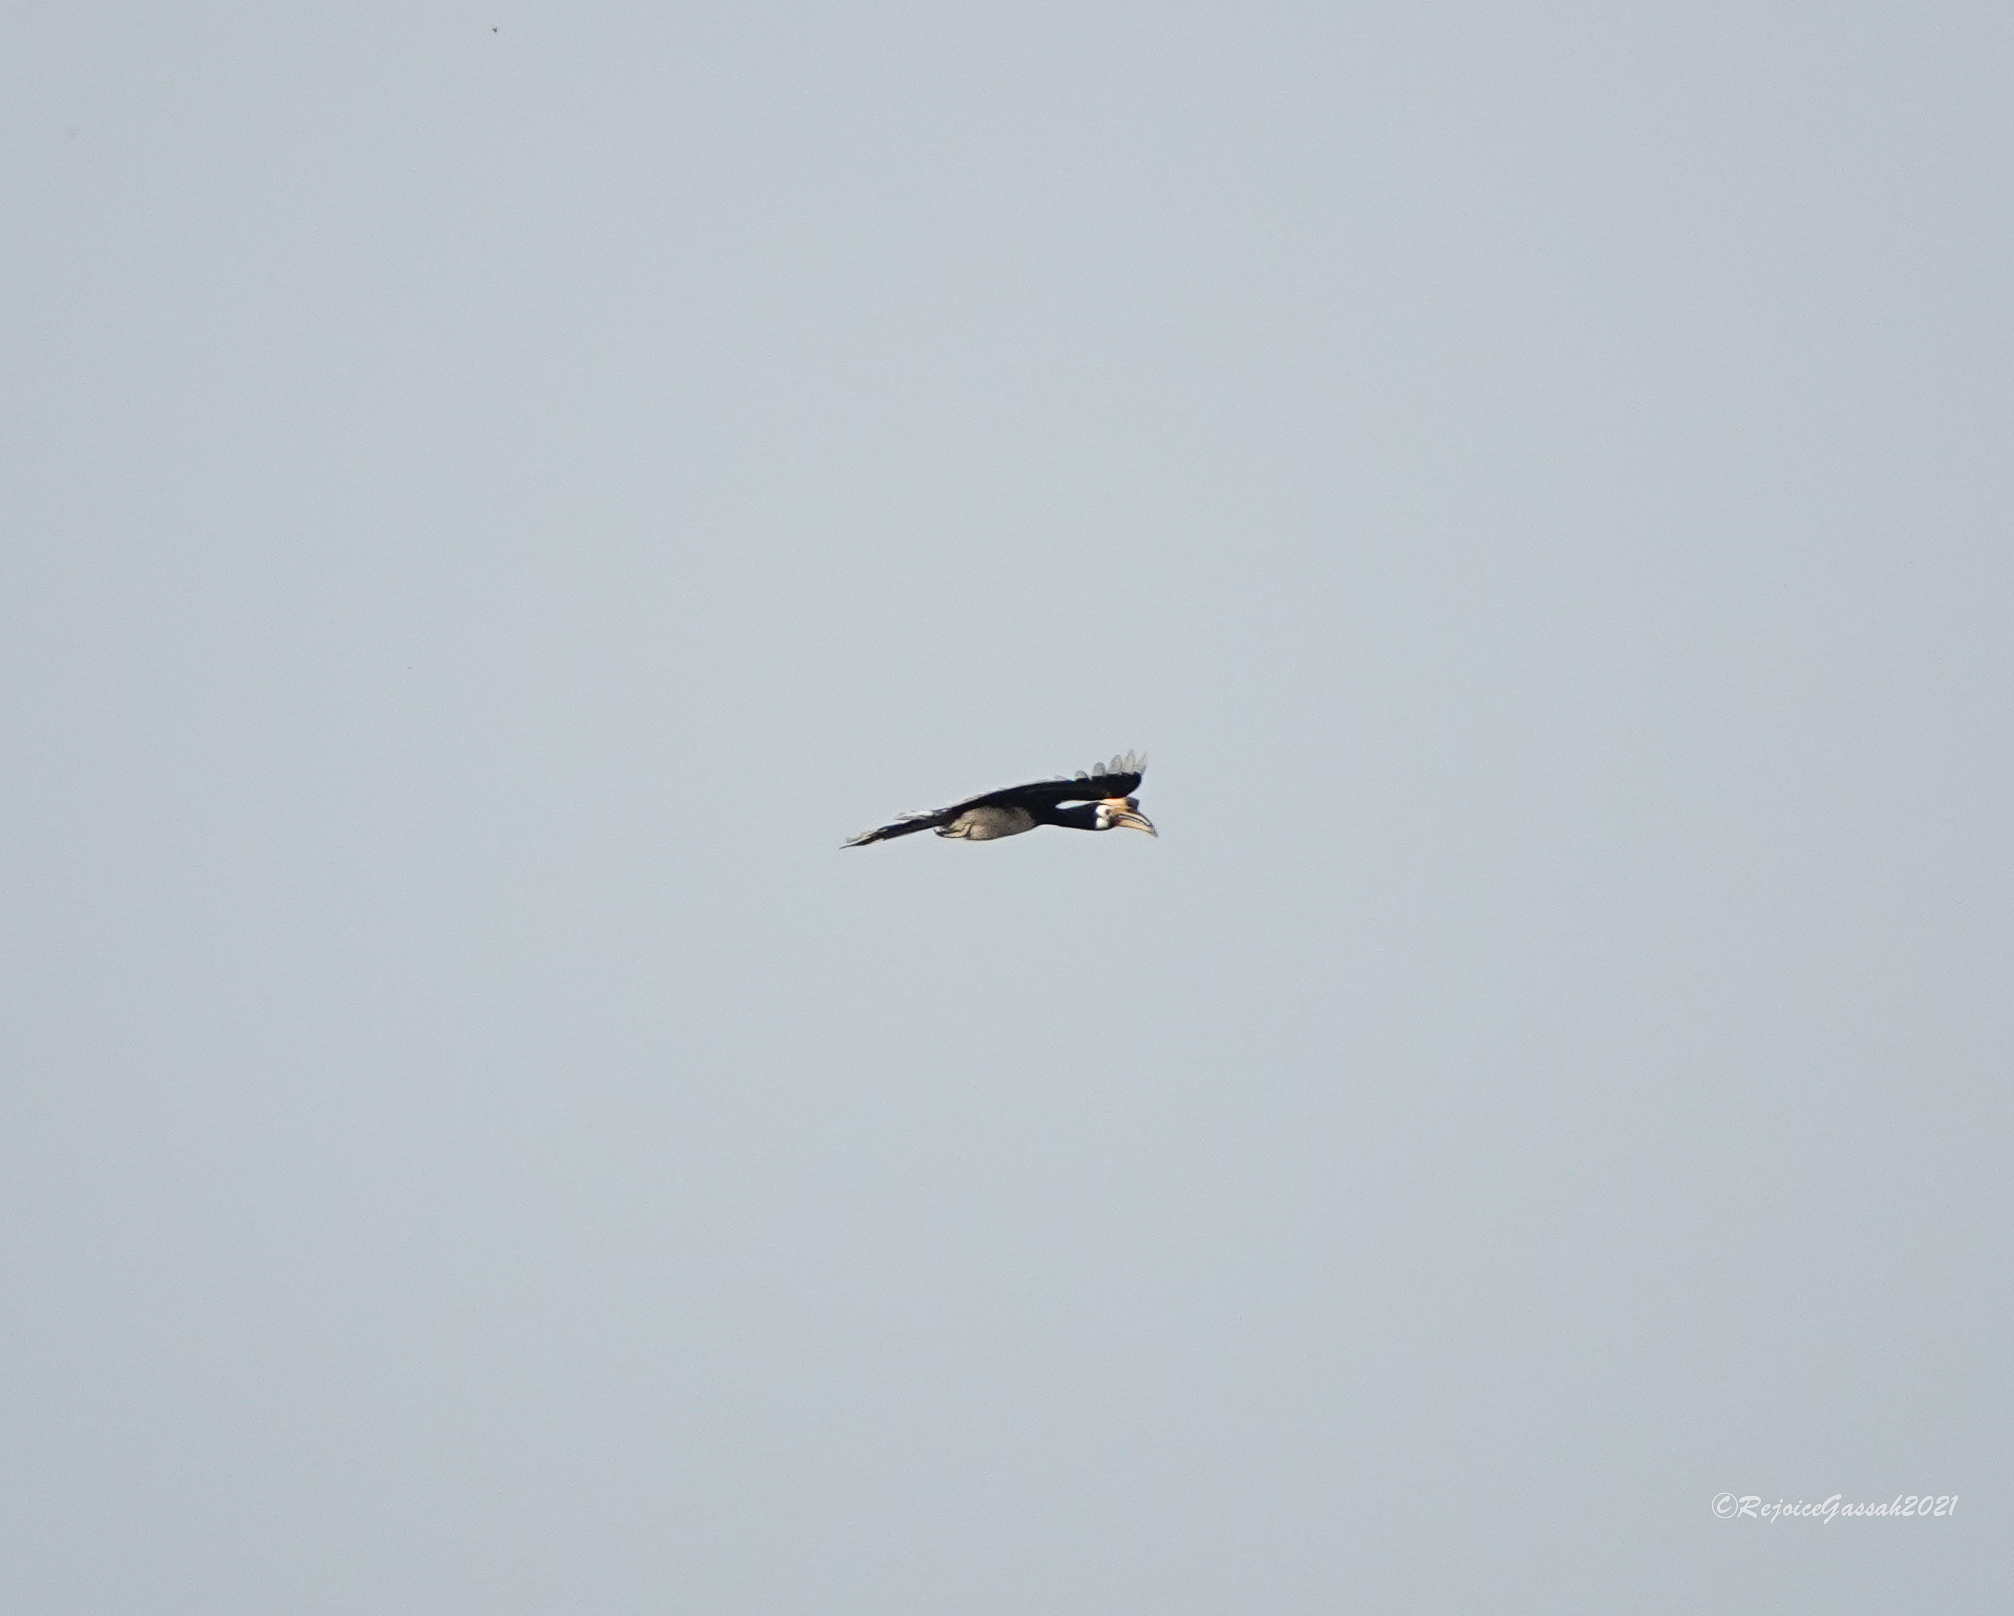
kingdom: Animalia
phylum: Chordata
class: Aves
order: Bucerotiformes
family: Bucerotidae
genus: Anthracoceros
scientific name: Anthracoceros albirostris
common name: Oriental pied-hornbill
